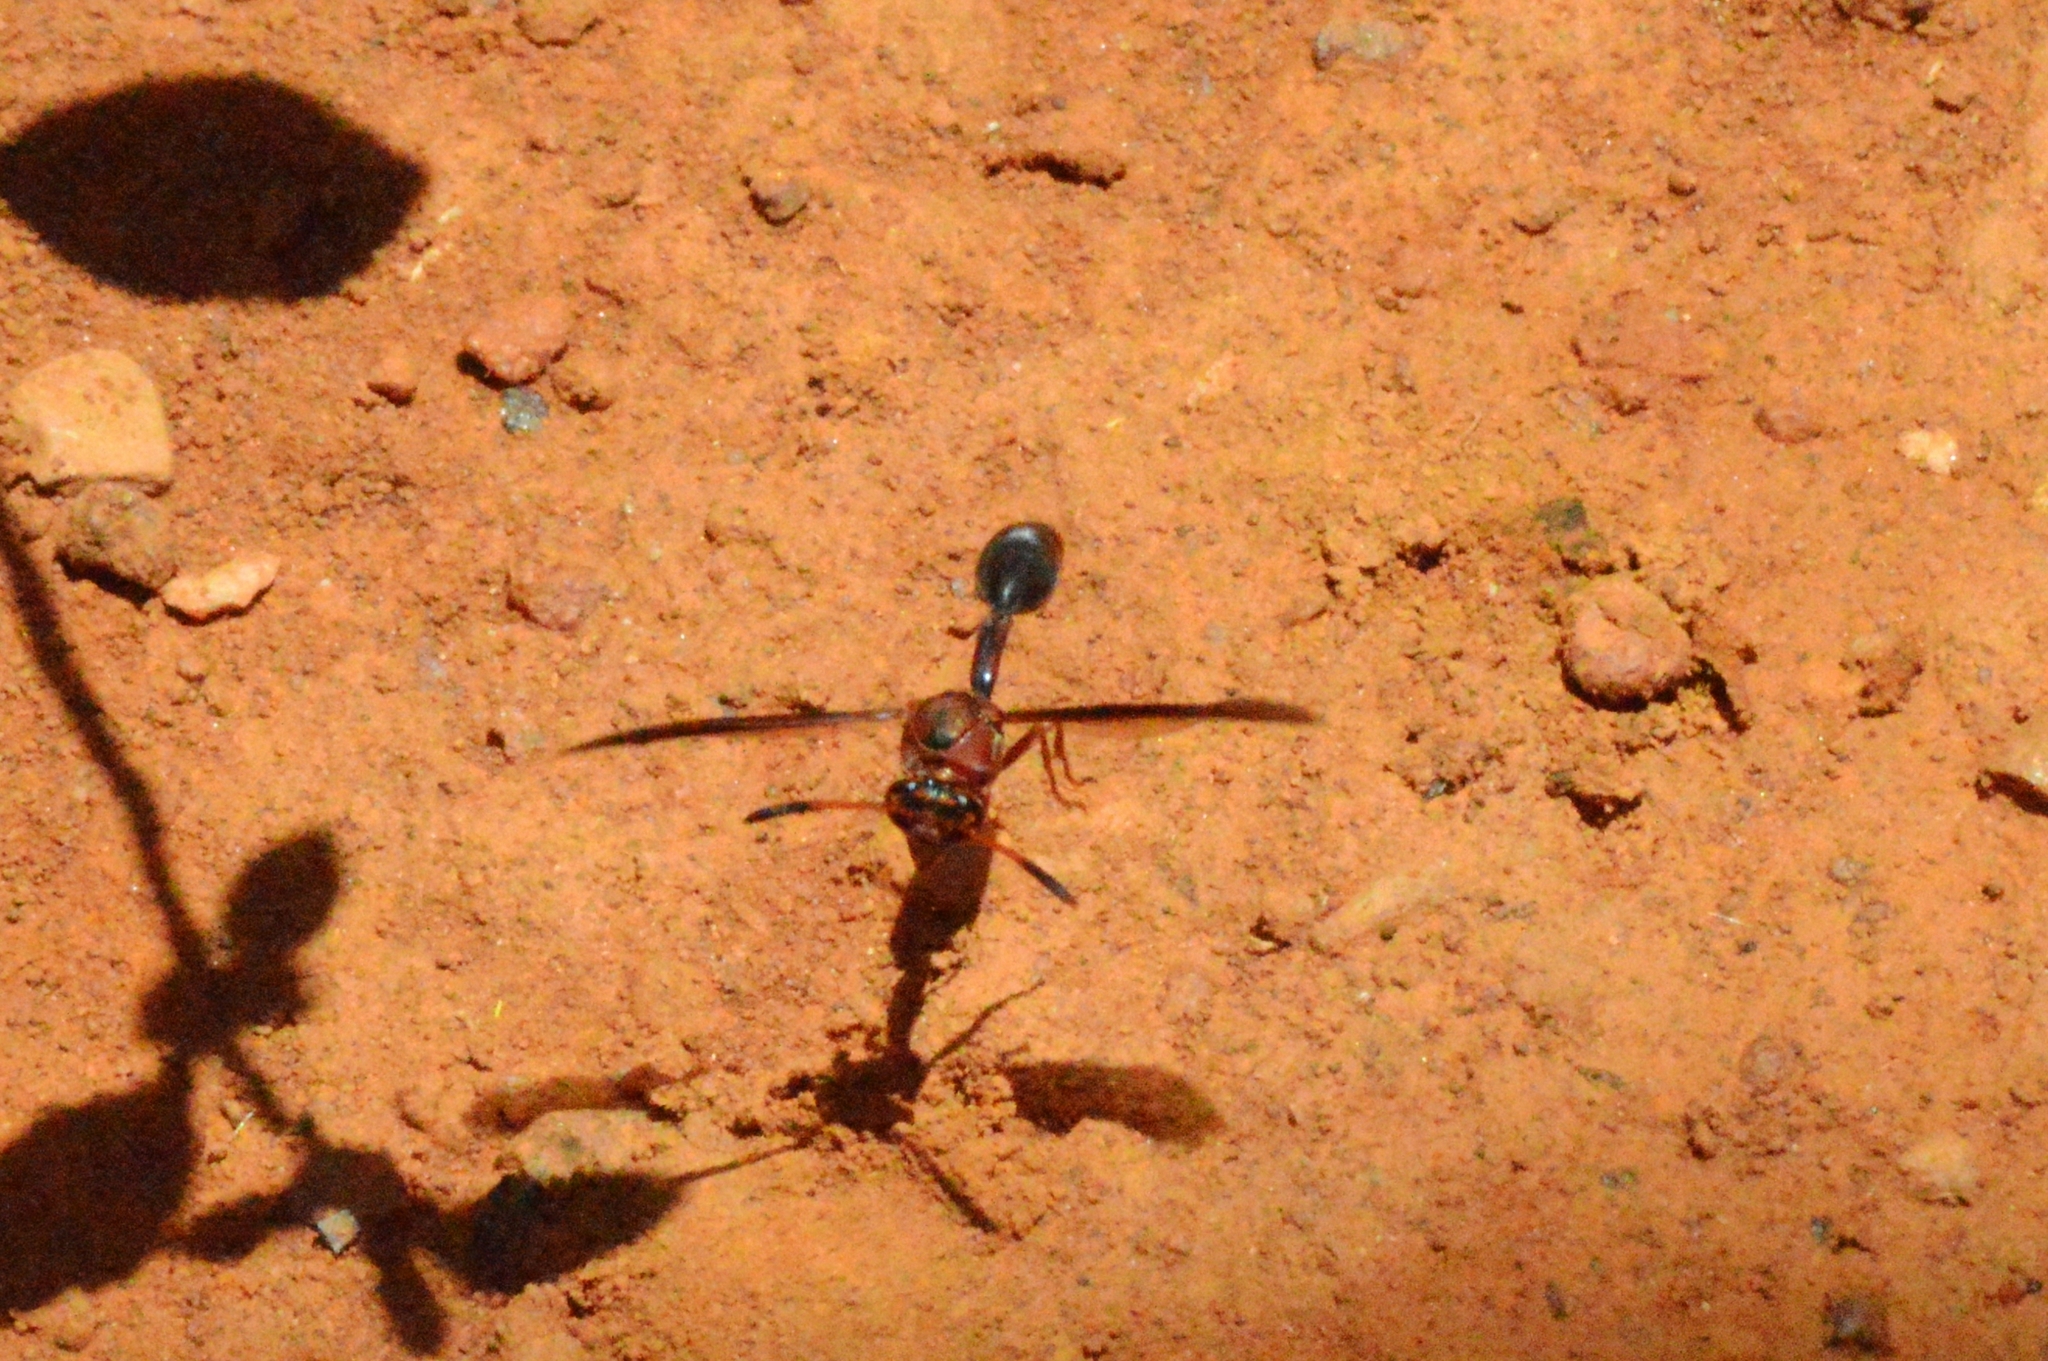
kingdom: Animalia
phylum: Arthropoda
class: Insecta
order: Hymenoptera
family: Eumenidae
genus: Zeta
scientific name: Zeta argillaceum
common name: Potter wasp
